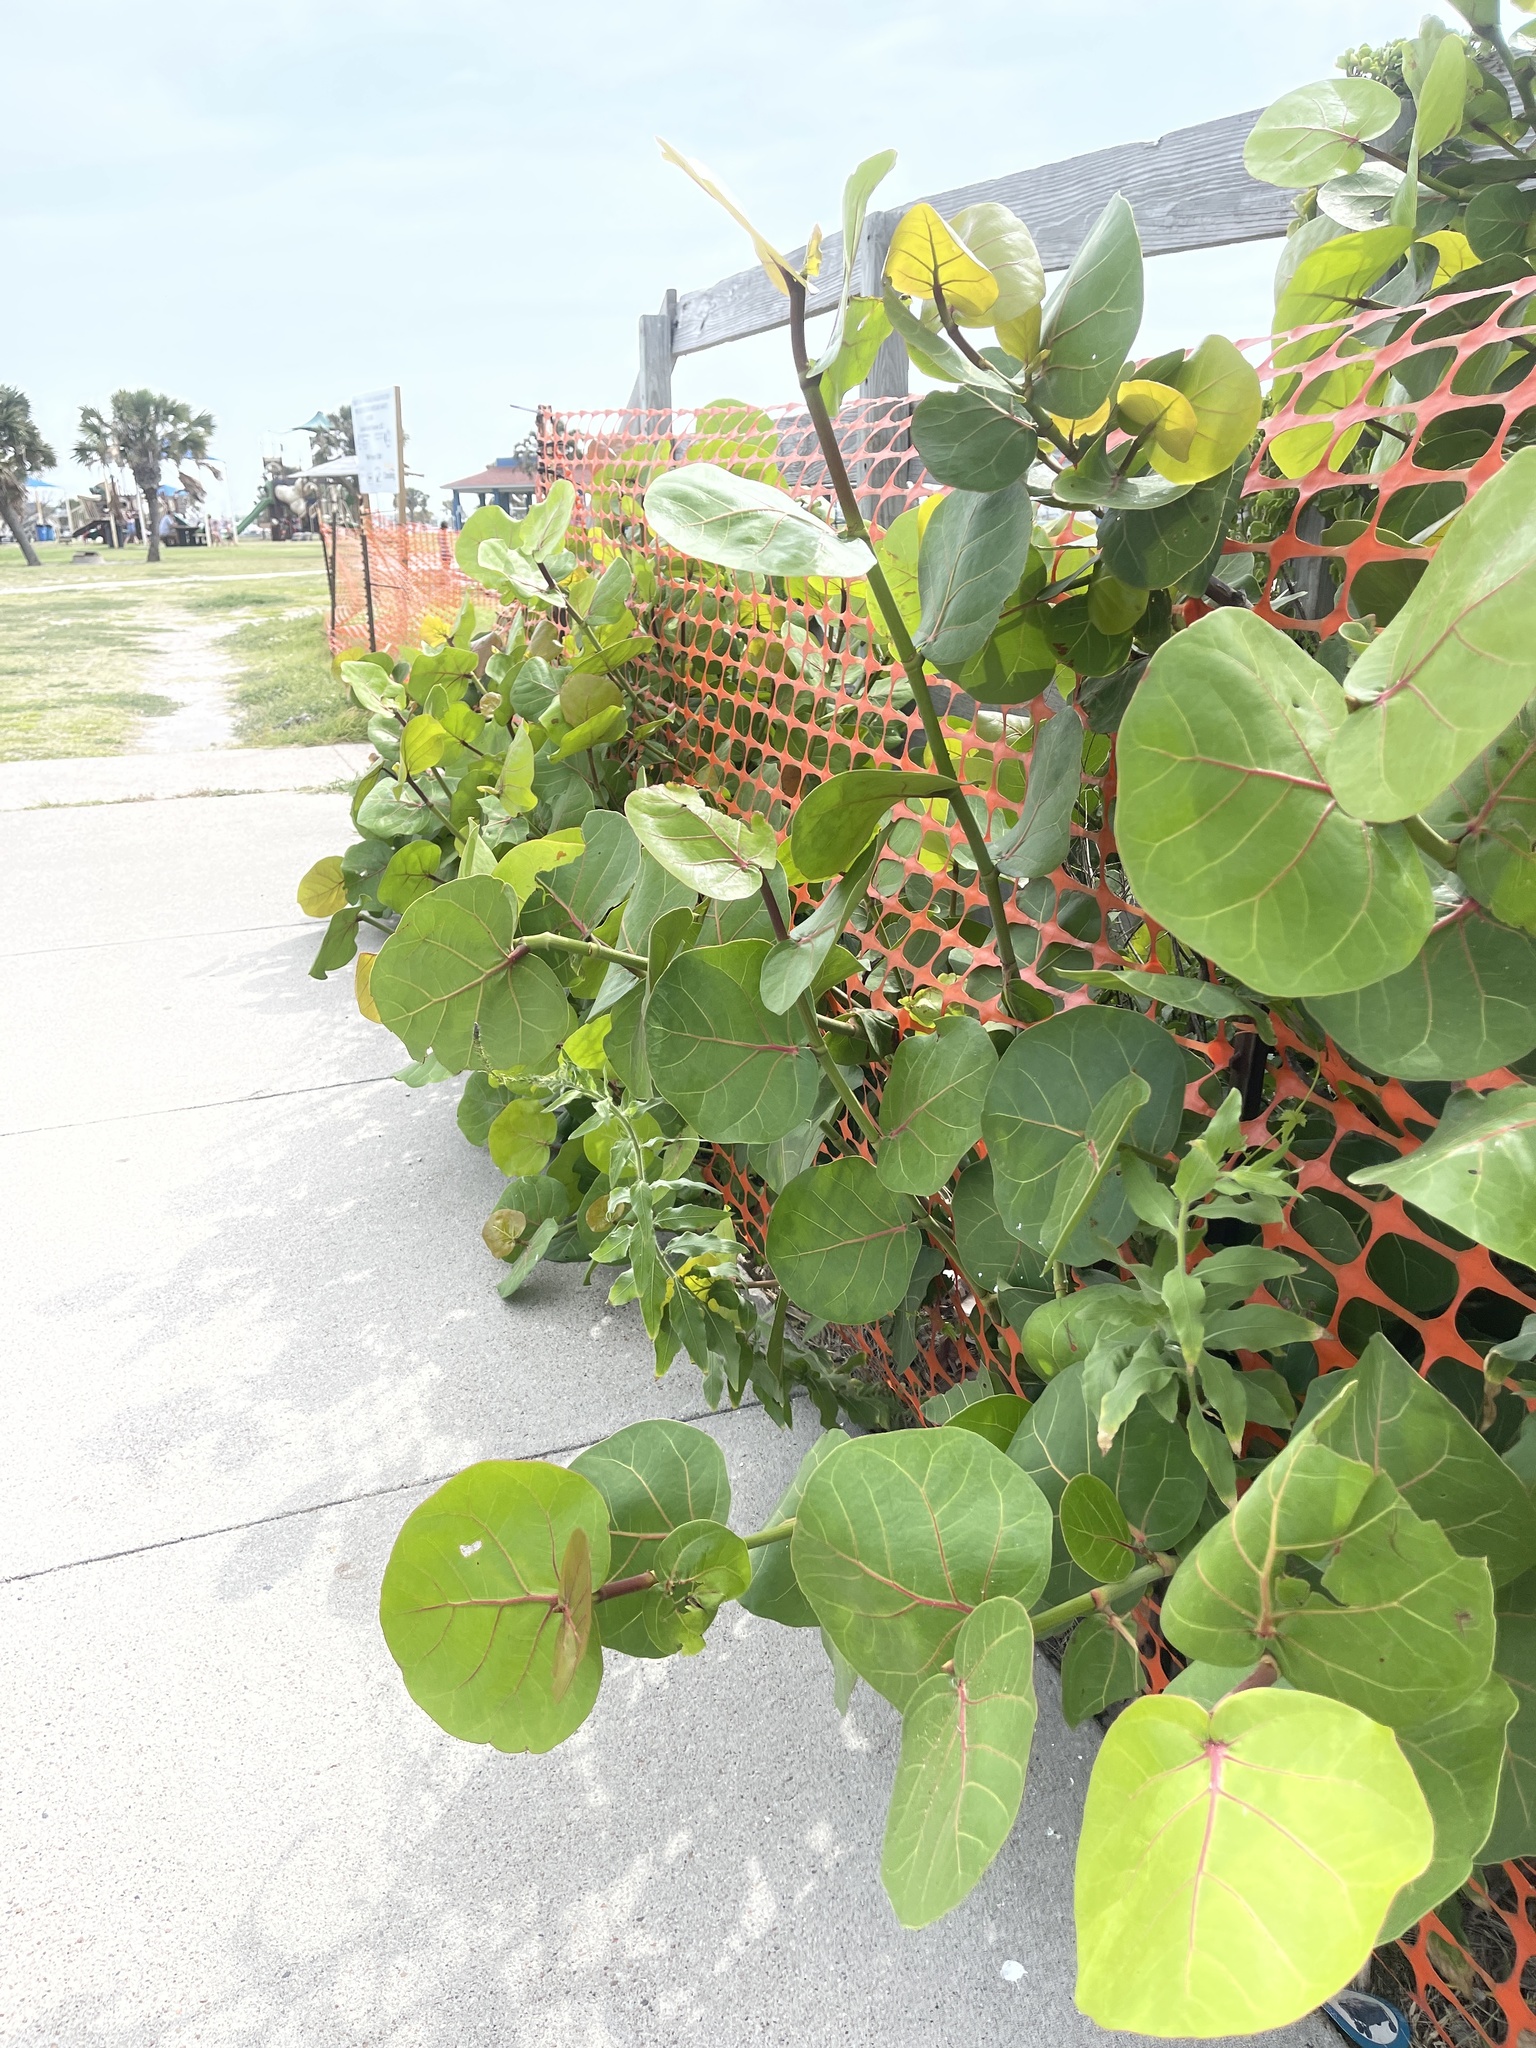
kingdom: Plantae
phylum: Tracheophyta
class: Magnoliopsida
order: Caryophyllales
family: Polygonaceae
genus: Coccoloba
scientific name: Coccoloba uvifera
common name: Seagrape
